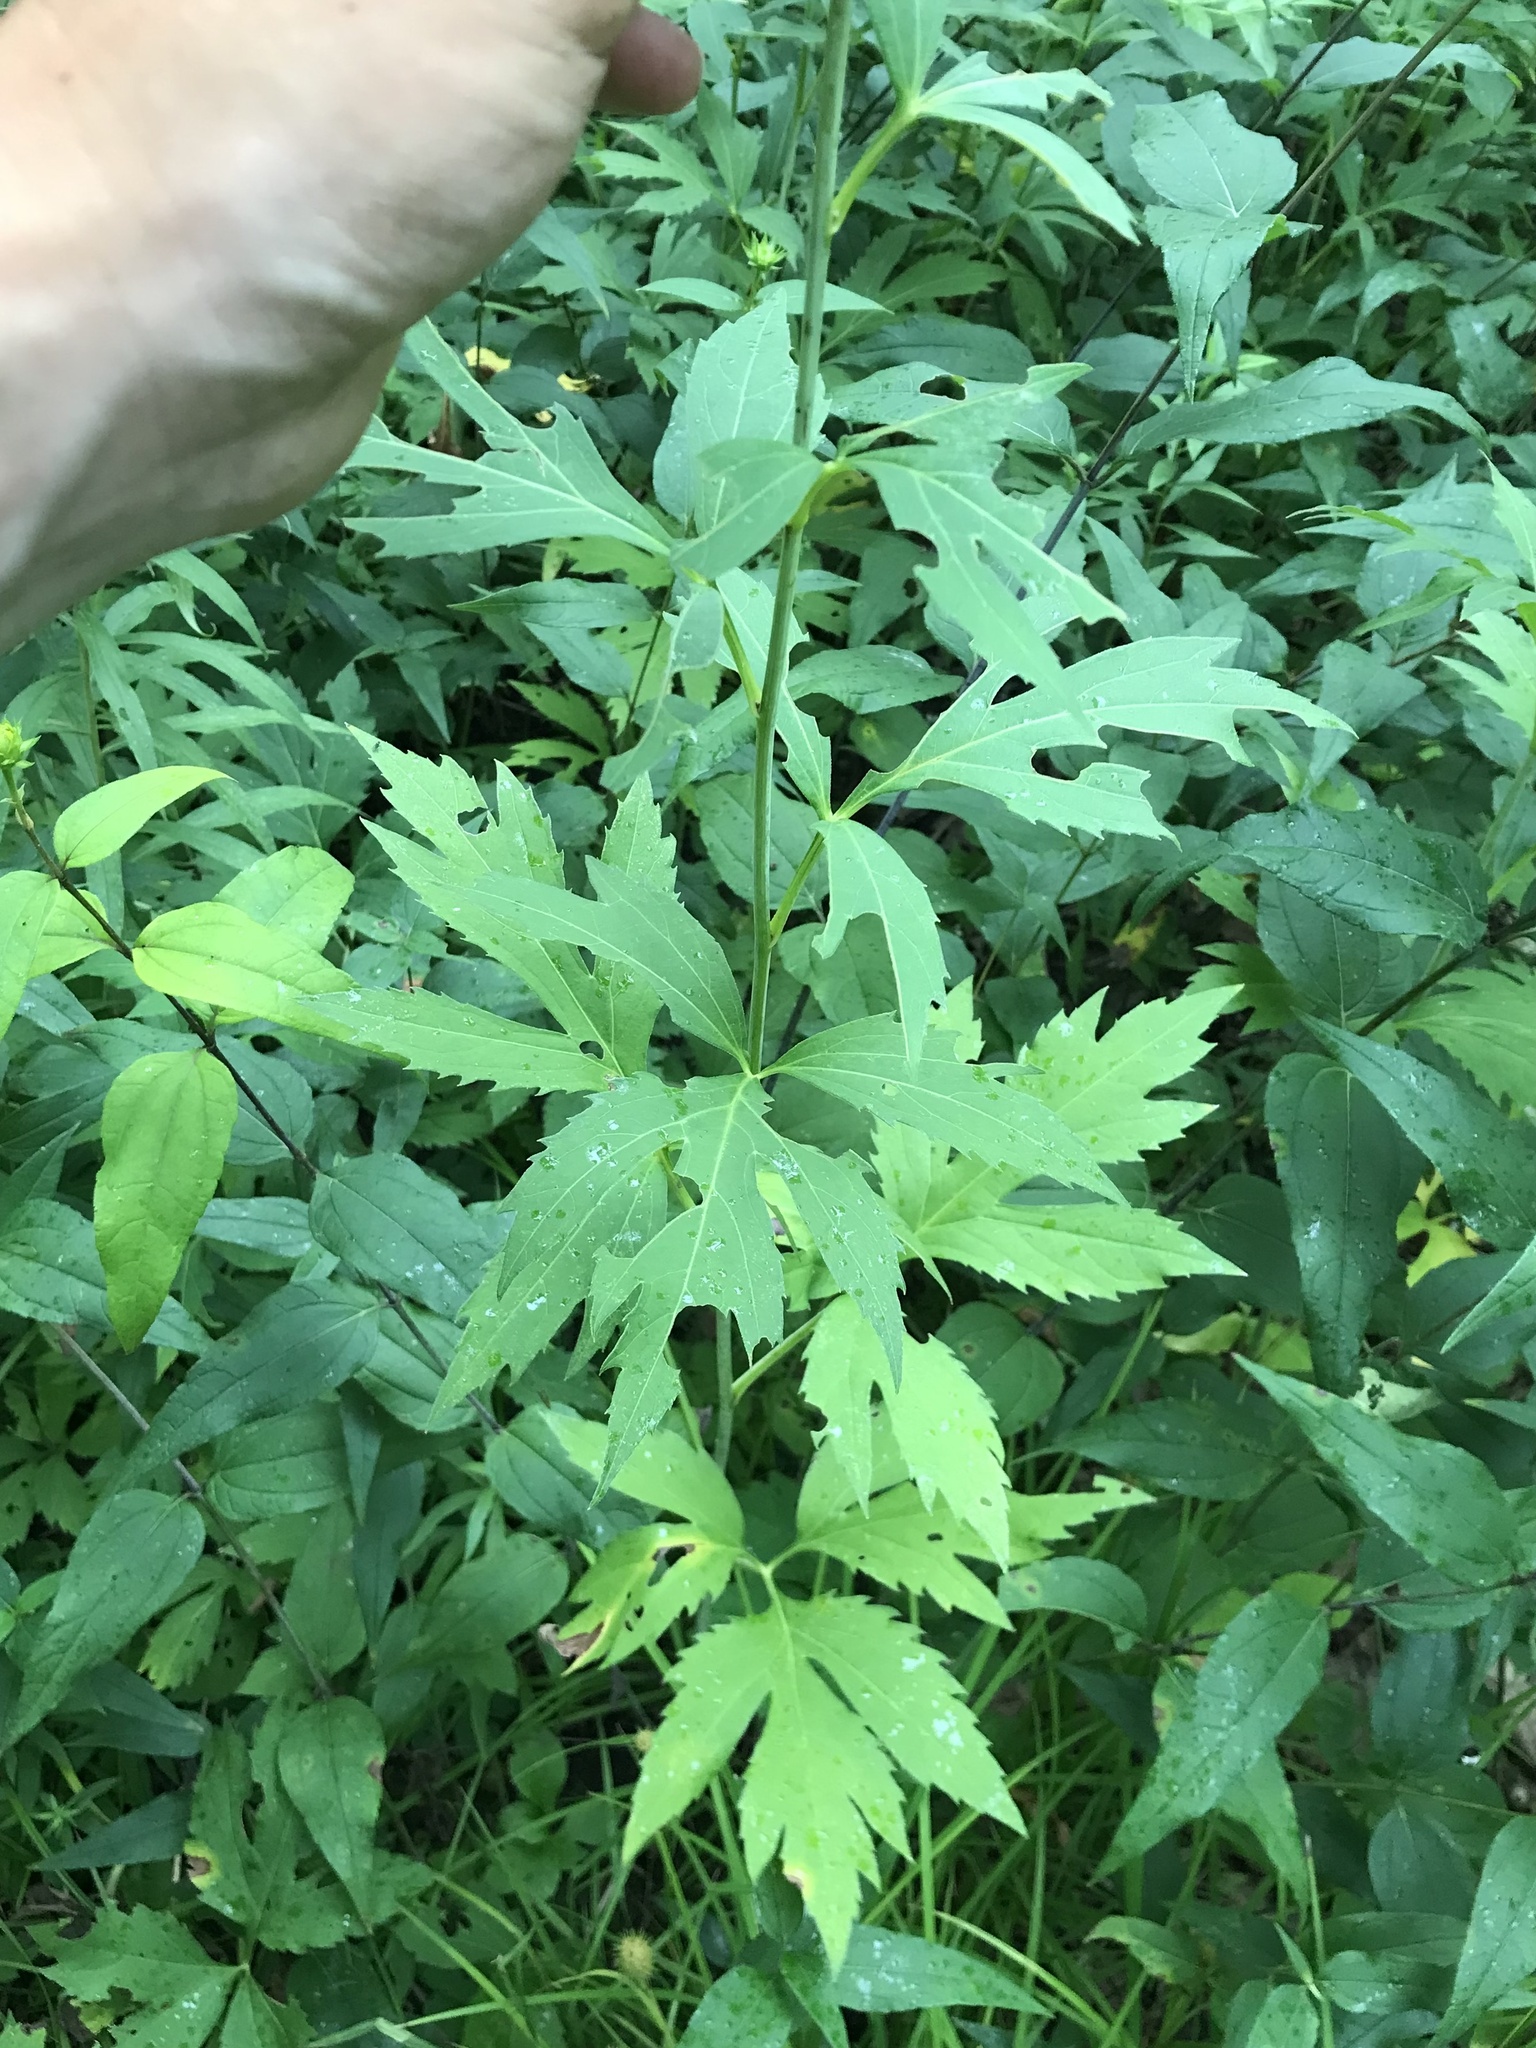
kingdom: Plantae
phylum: Tracheophyta
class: Magnoliopsida
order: Asterales
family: Asteraceae
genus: Rudbeckia
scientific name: Rudbeckia laciniata
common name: Coneflower
